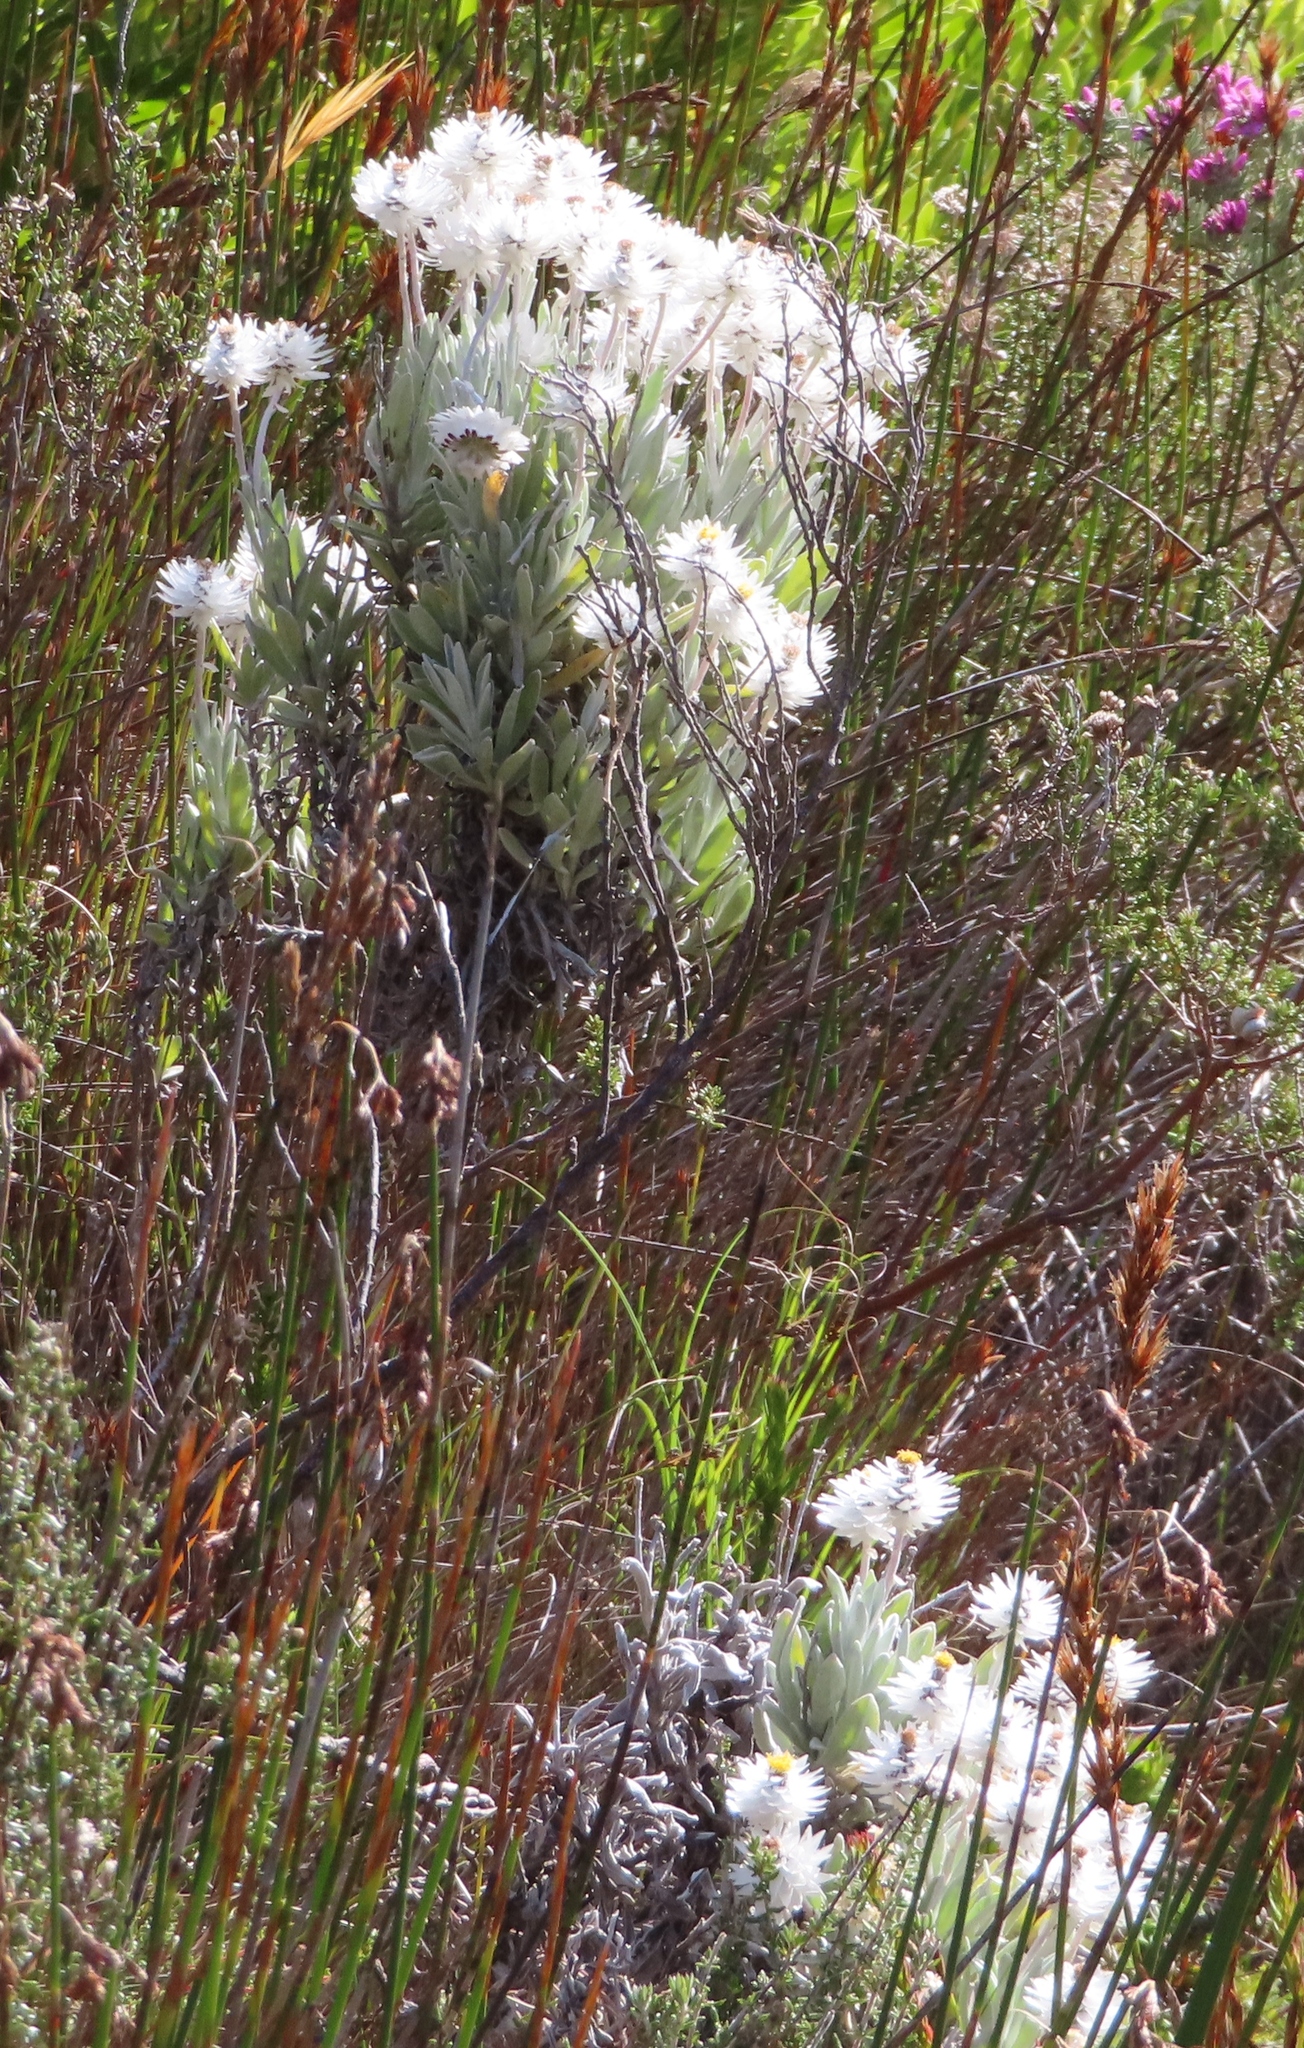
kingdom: Plantae
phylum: Tracheophyta
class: Magnoliopsida
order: Asterales
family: Asteraceae
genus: Syncarpha
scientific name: Syncarpha vestita
